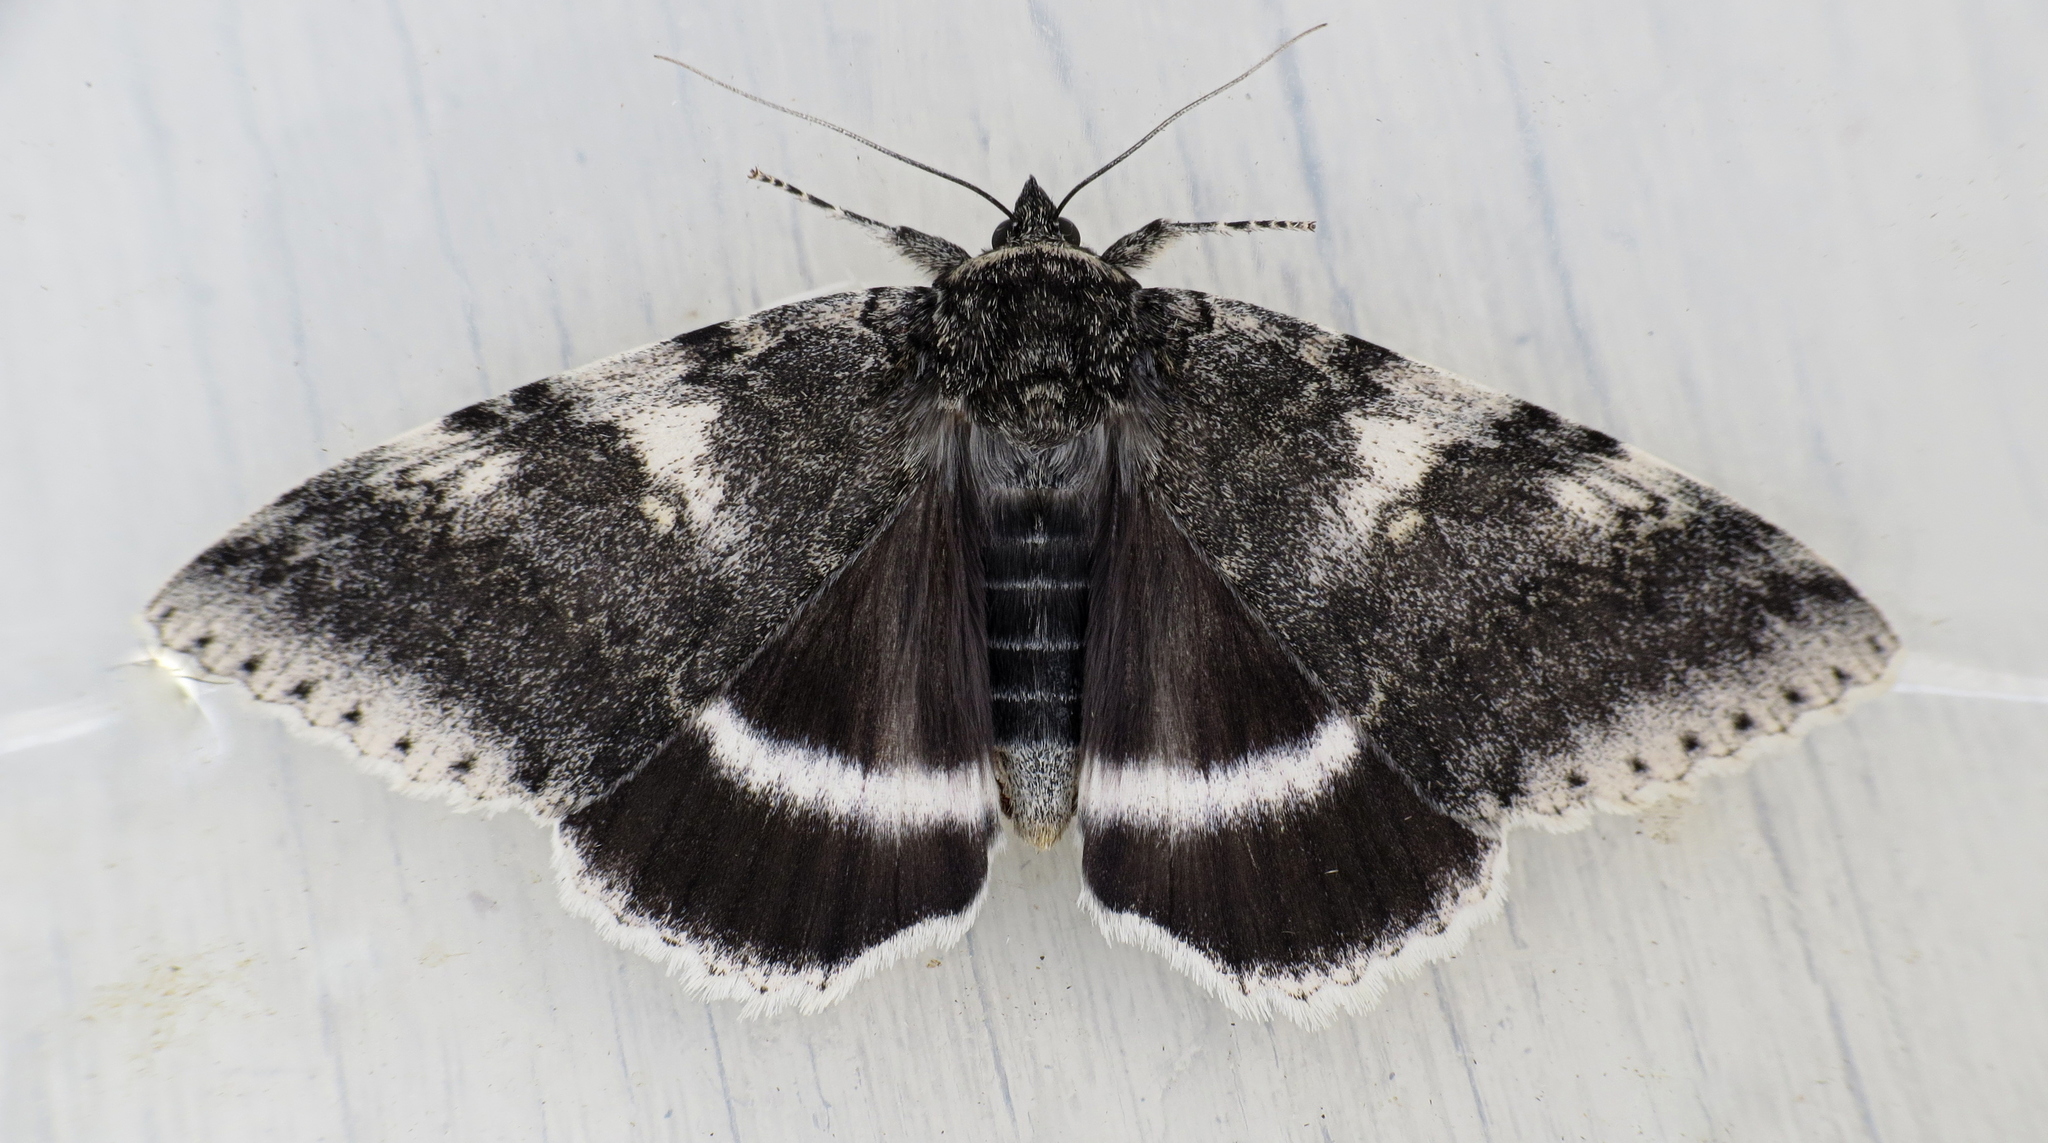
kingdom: Animalia
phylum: Arthropoda
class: Insecta
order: Lepidoptera
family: Erebidae
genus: Catocala
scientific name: Catocala relicta
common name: White underwing
